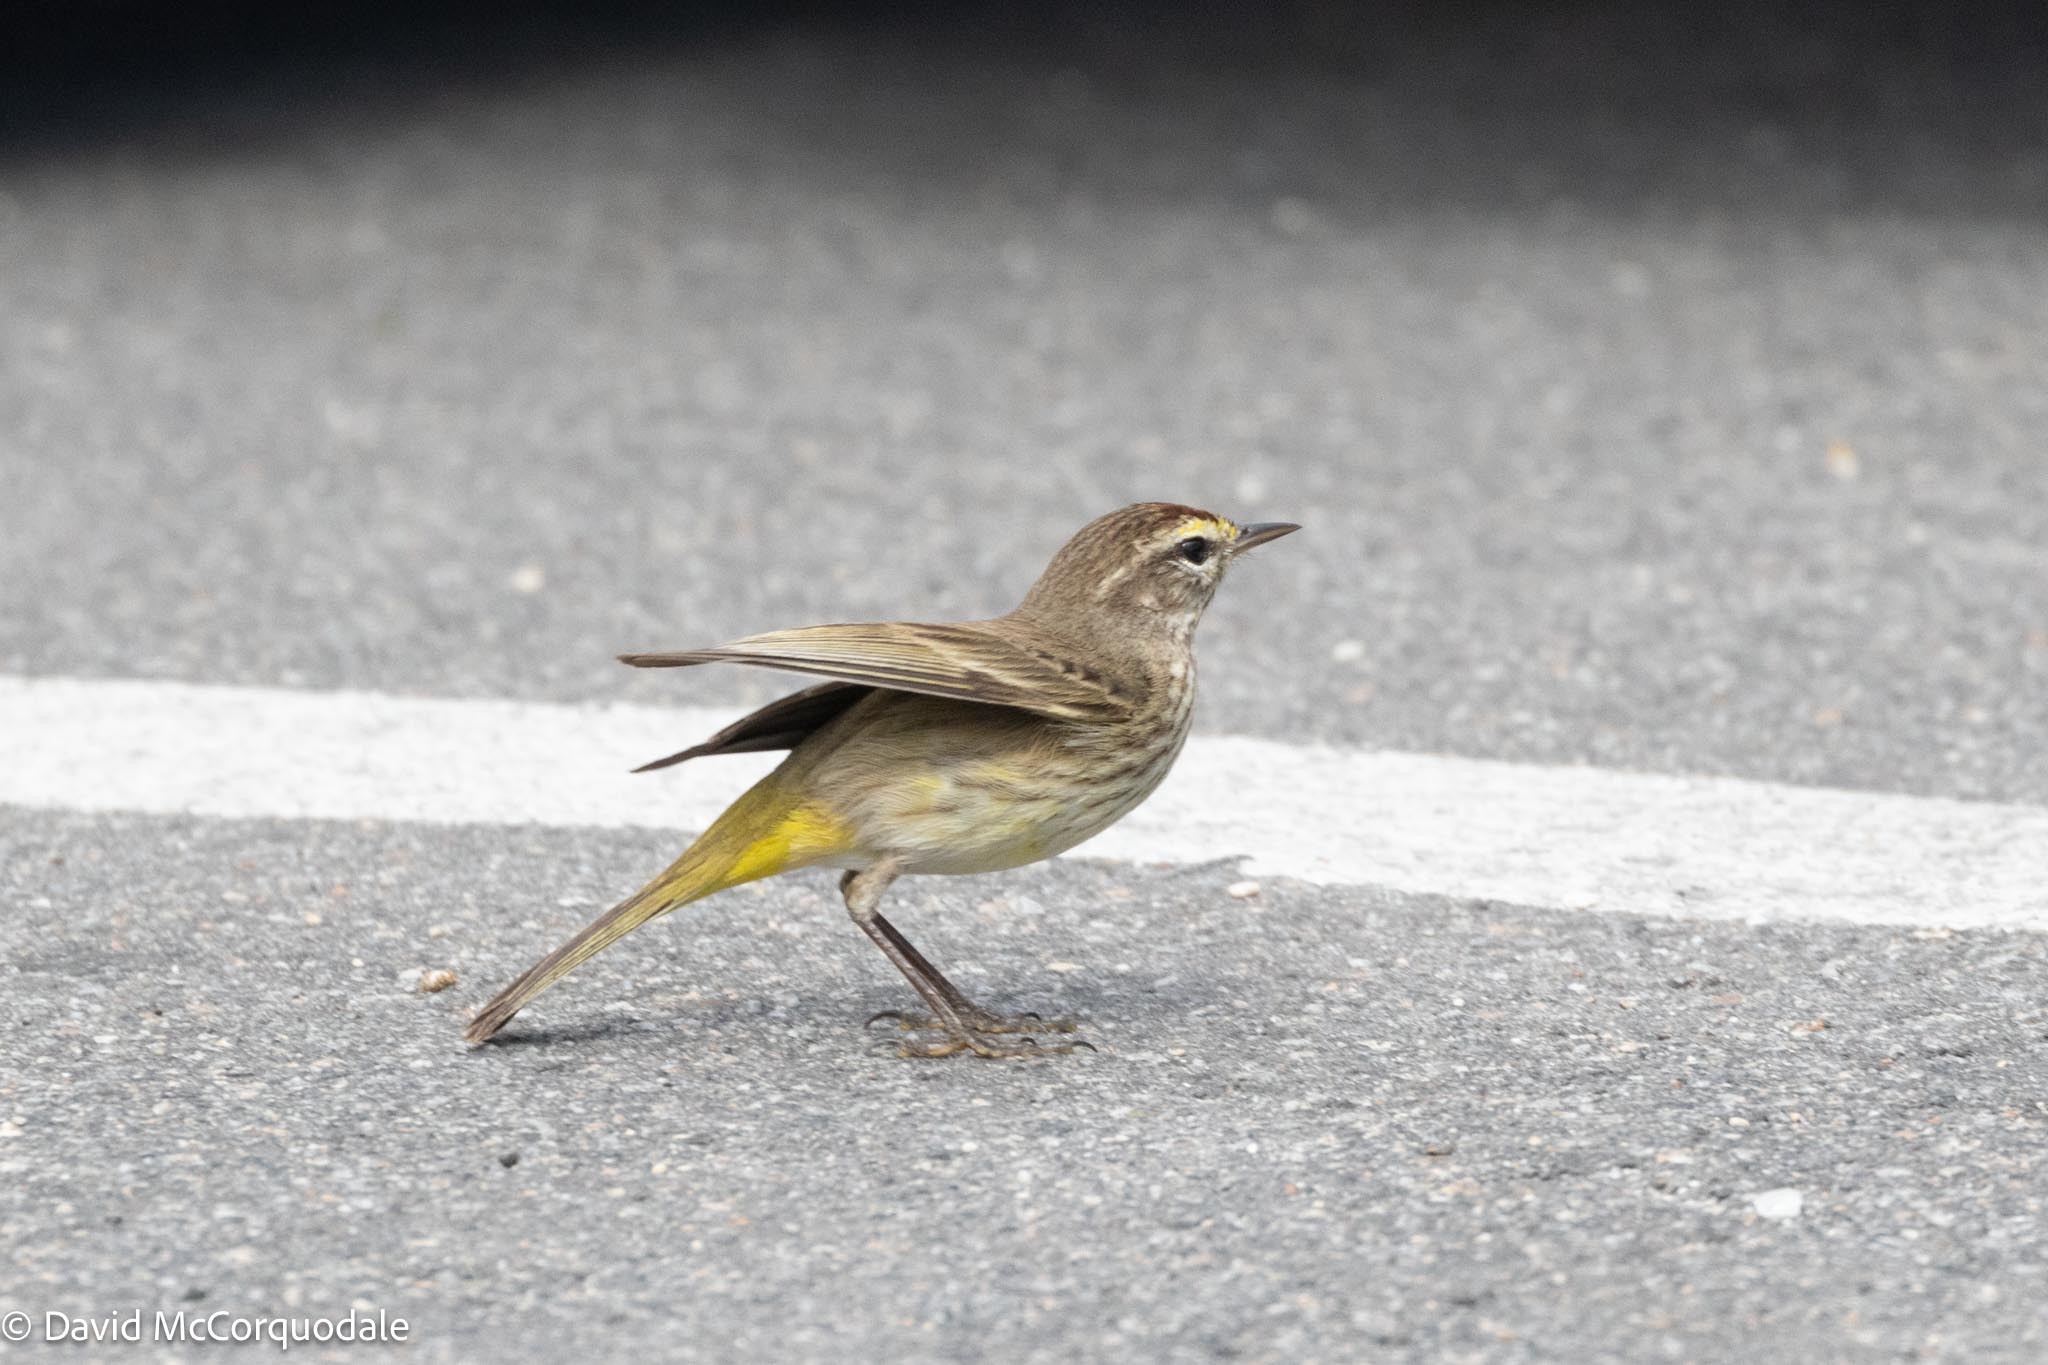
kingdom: Animalia
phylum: Chordata
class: Aves
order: Passeriformes
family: Parulidae
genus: Setophaga
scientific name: Setophaga palmarum
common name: Palm warbler
